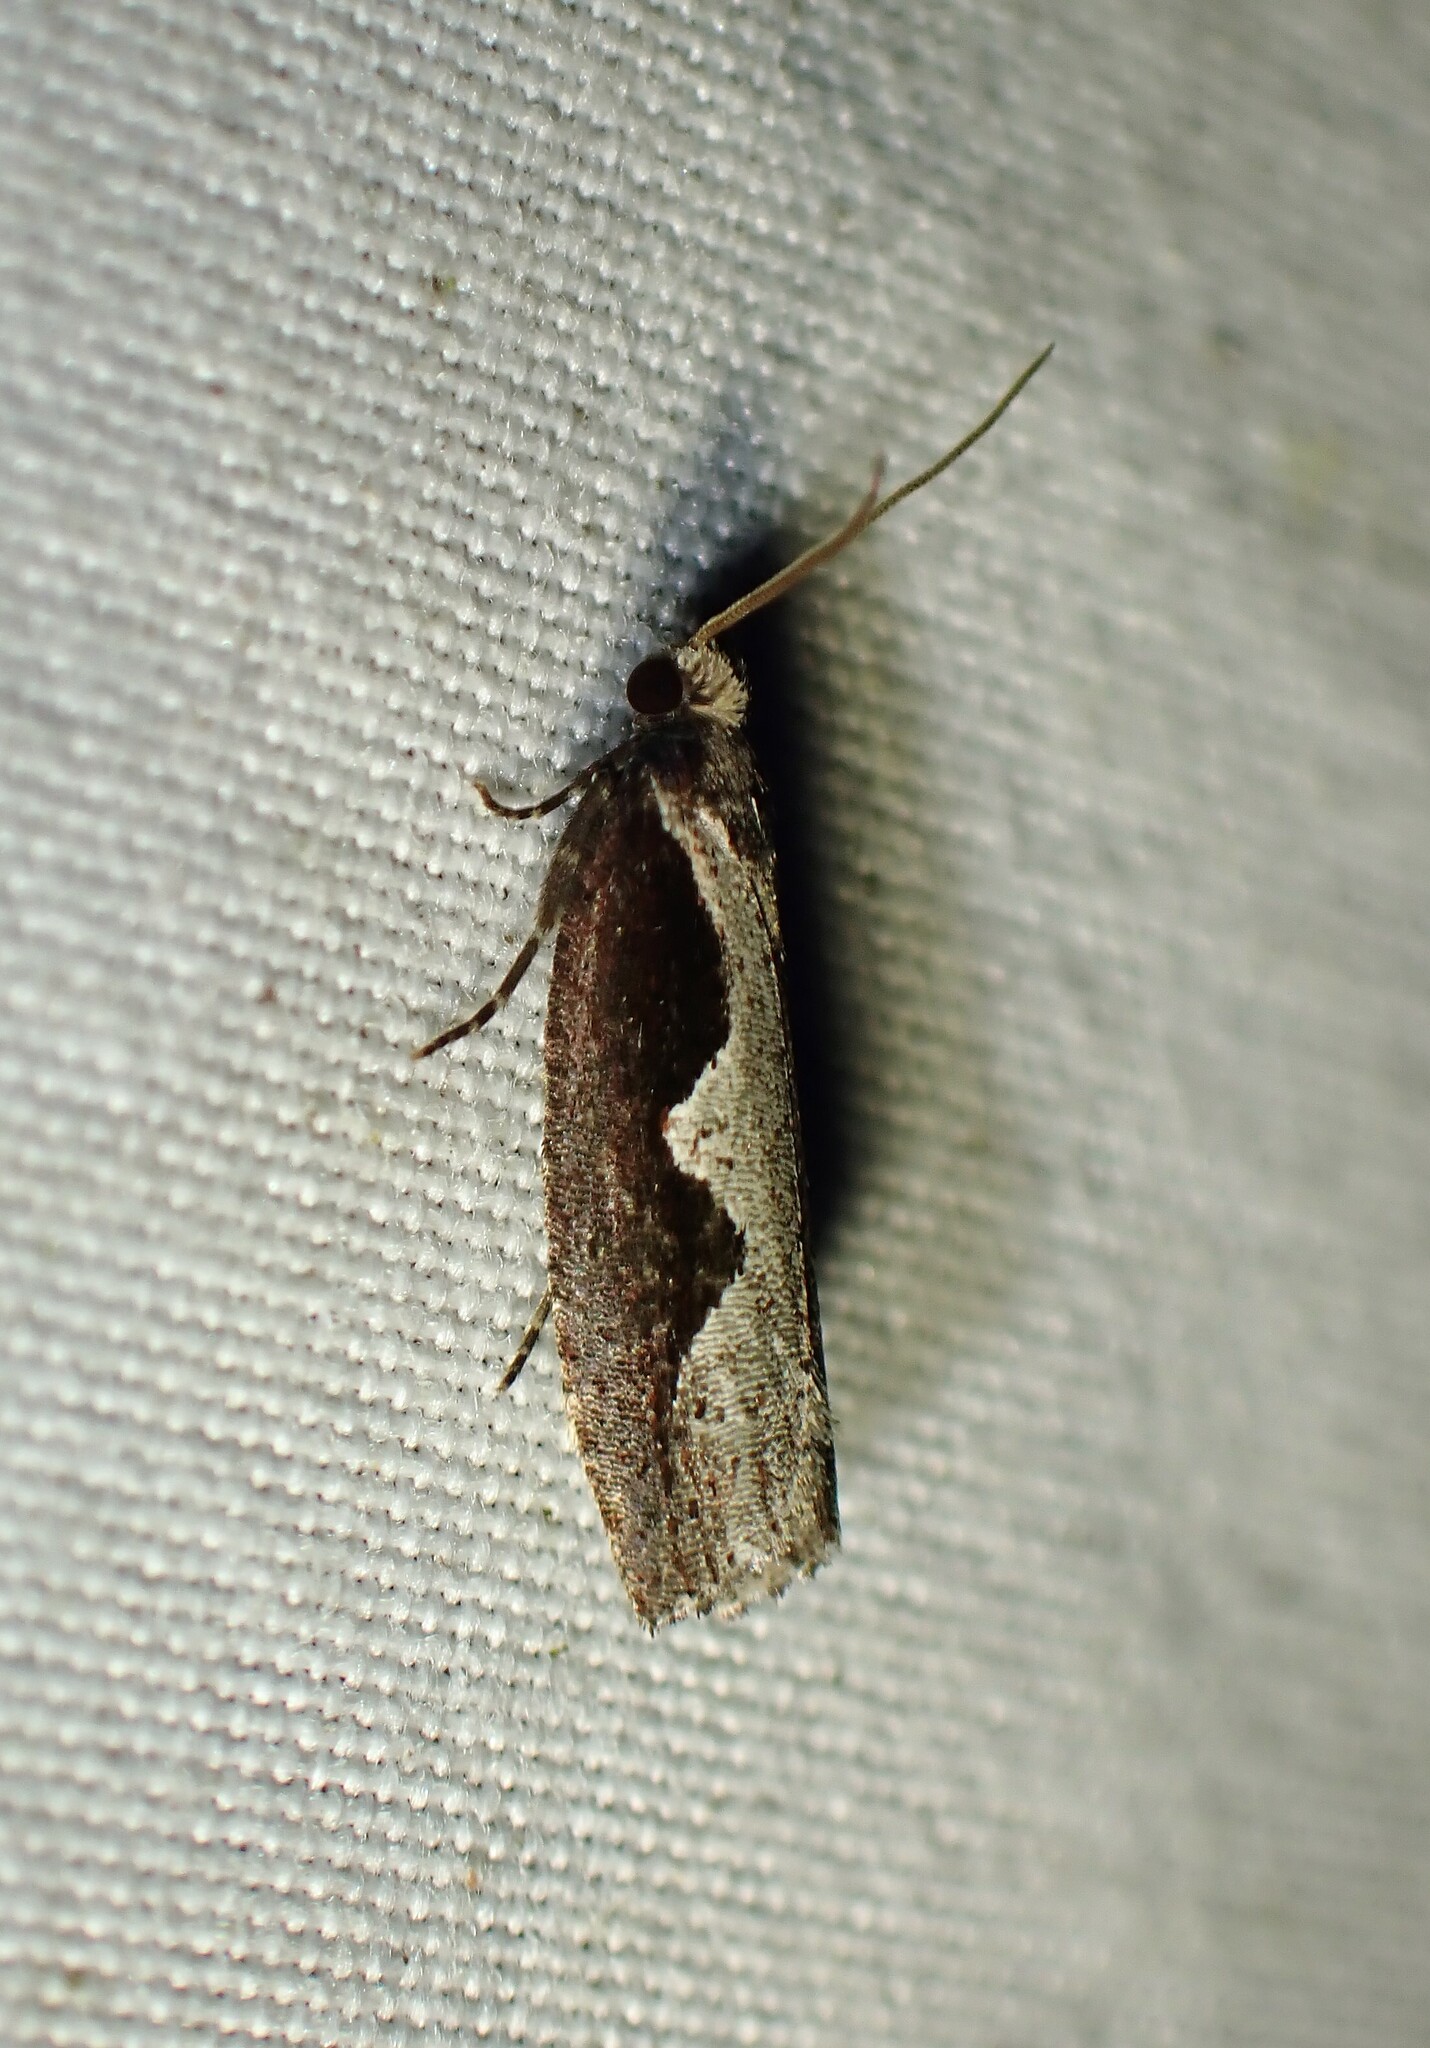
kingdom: Animalia
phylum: Arthropoda
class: Insecta
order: Lepidoptera
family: Tortricidae
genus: Epinotia
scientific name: Epinotia lindana
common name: Diamondback epinotia moth
